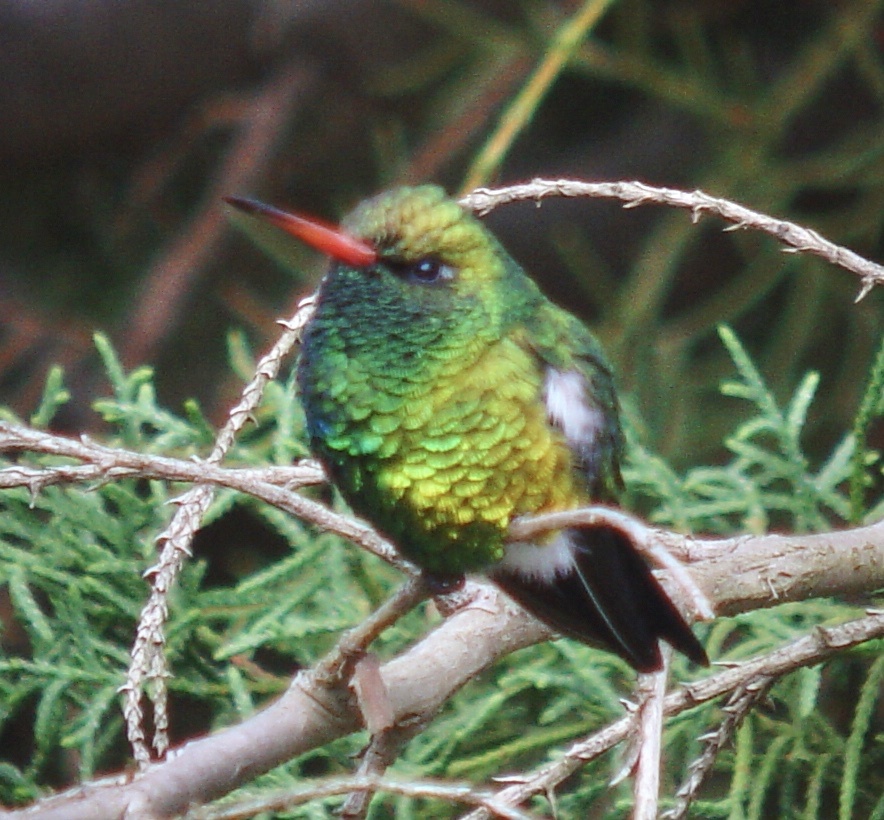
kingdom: Animalia
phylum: Chordata
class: Aves
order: Apodiformes
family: Trochilidae
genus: Chlorostilbon
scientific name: Chlorostilbon lucidus
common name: Glittering-bellied emerald
